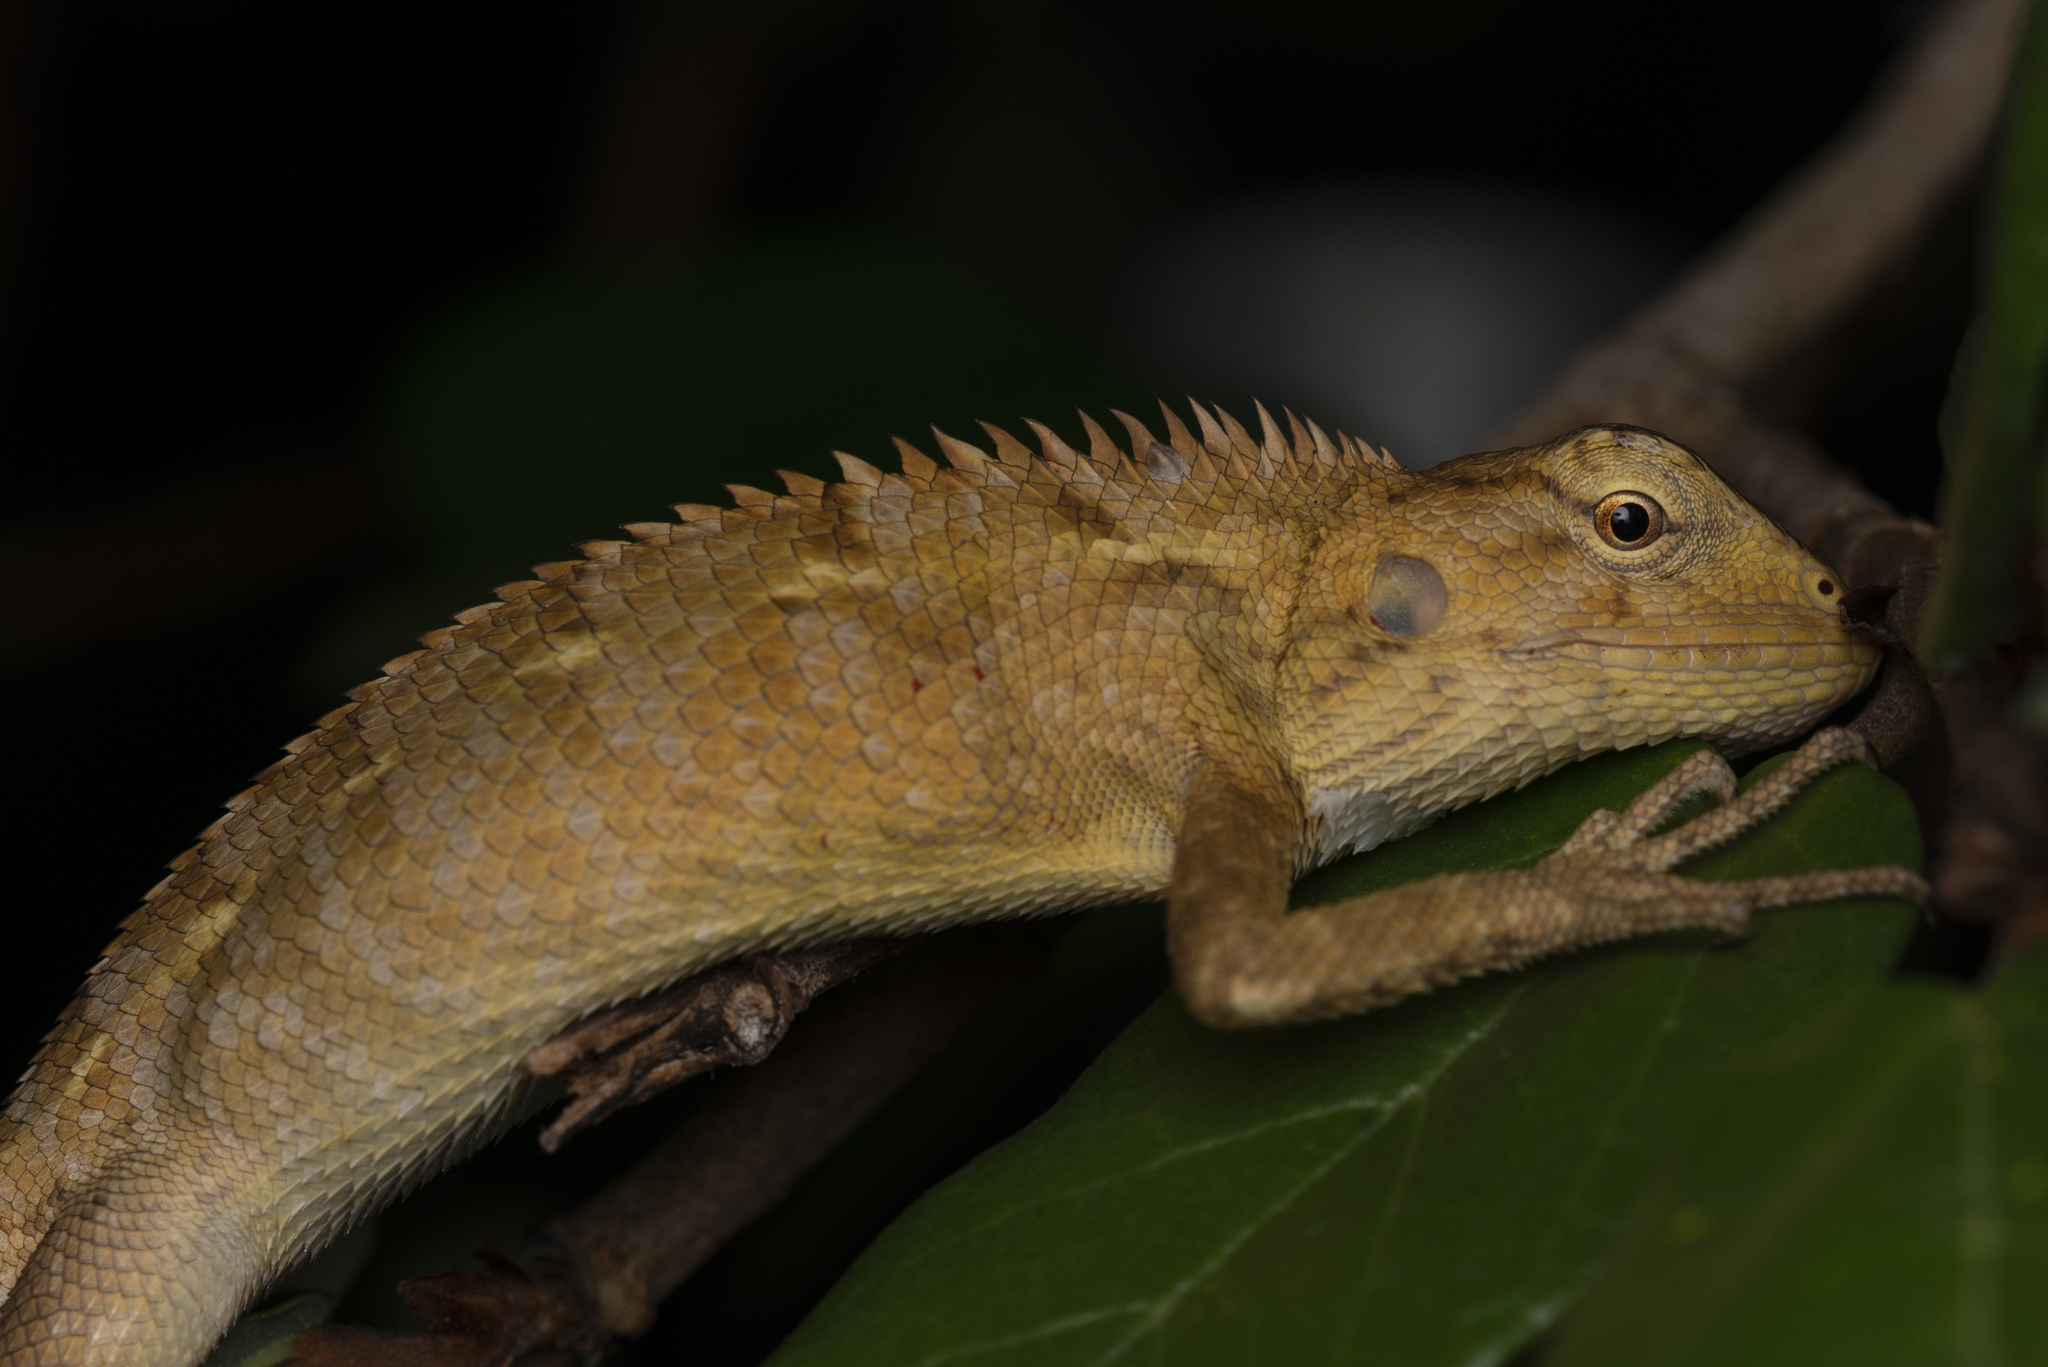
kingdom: Animalia
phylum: Chordata
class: Squamata
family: Agamidae
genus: Calotes
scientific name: Calotes versicolor
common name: Oriental garden lizard
